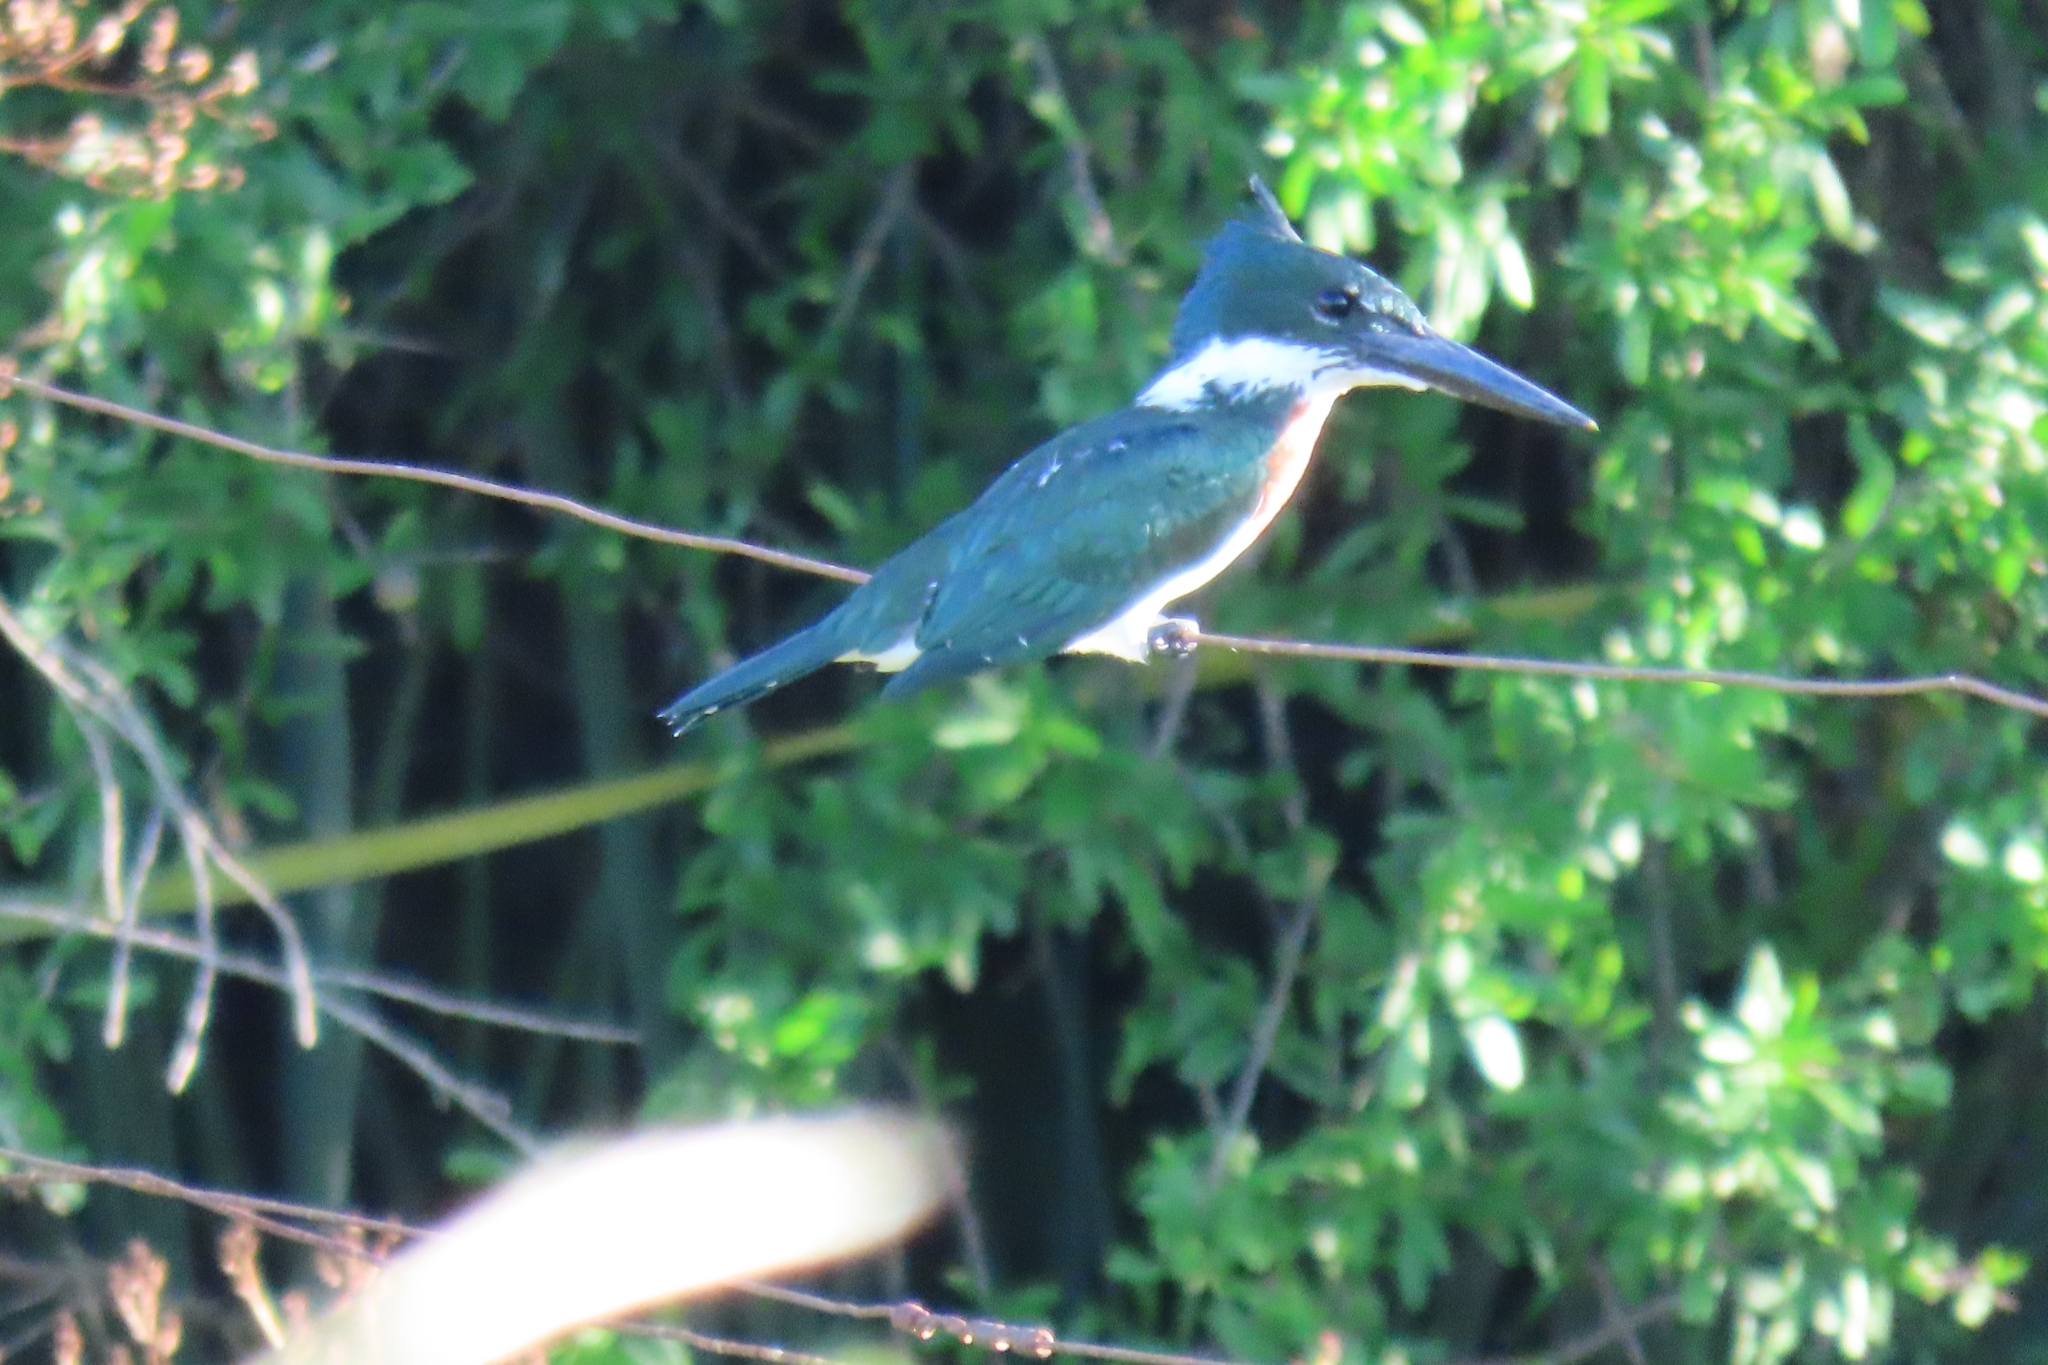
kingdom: Animalia
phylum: Chordata
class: Aves
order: Coraciiformes
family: Alcedinidae
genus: Chloroceryle
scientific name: Chloroceryle amazona
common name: Amazon kingfisher
